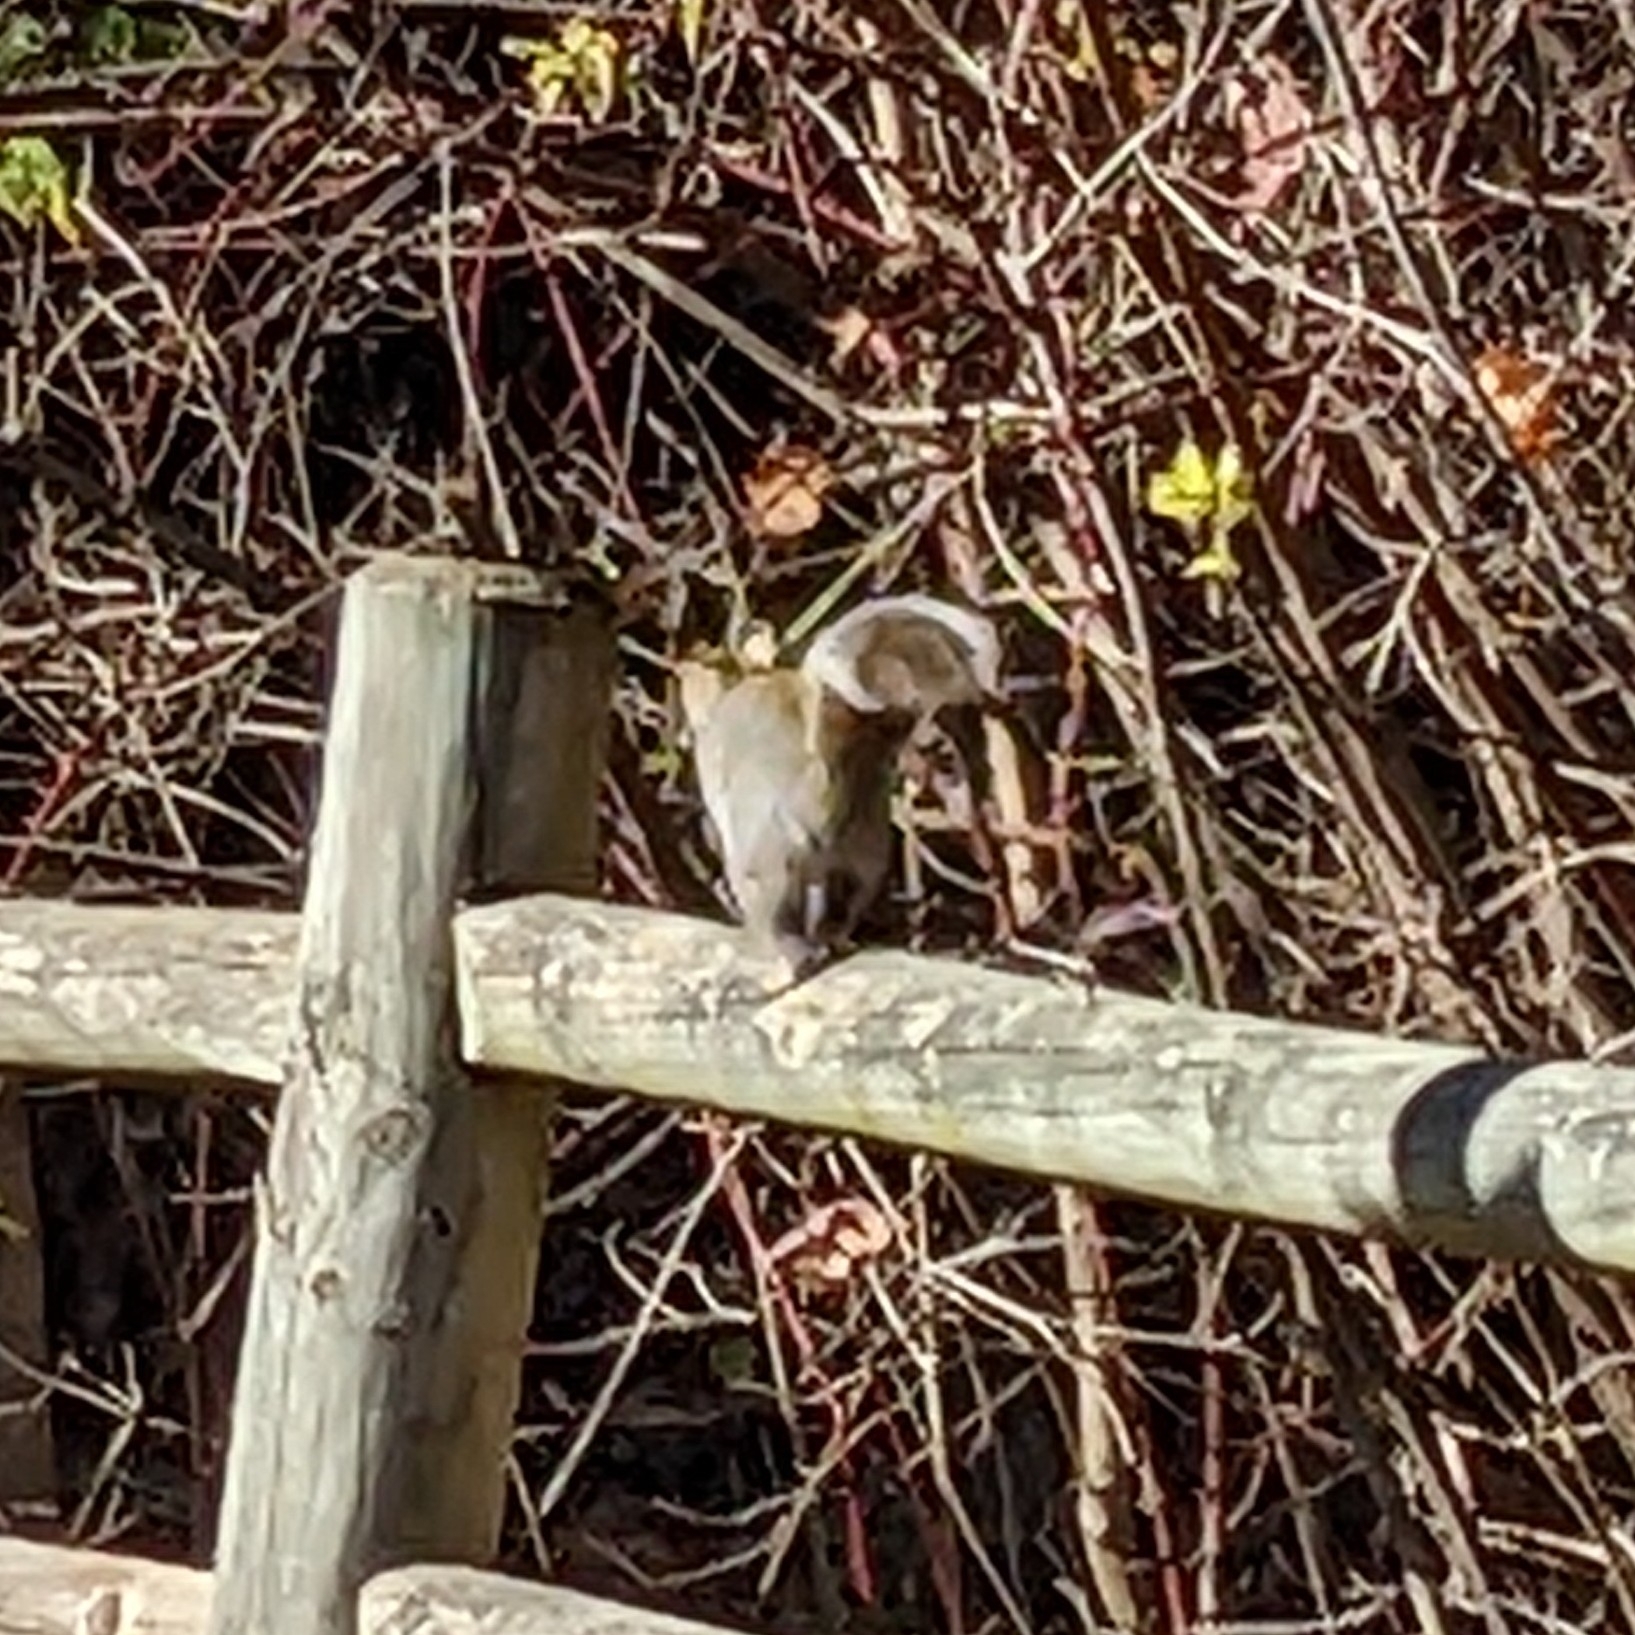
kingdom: Animalia
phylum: Chordata
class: Mammalia
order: Rodentia
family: Sciuridae
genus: Sciurus
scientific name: Sciurus carolinensis
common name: Eastern gray squirrel
